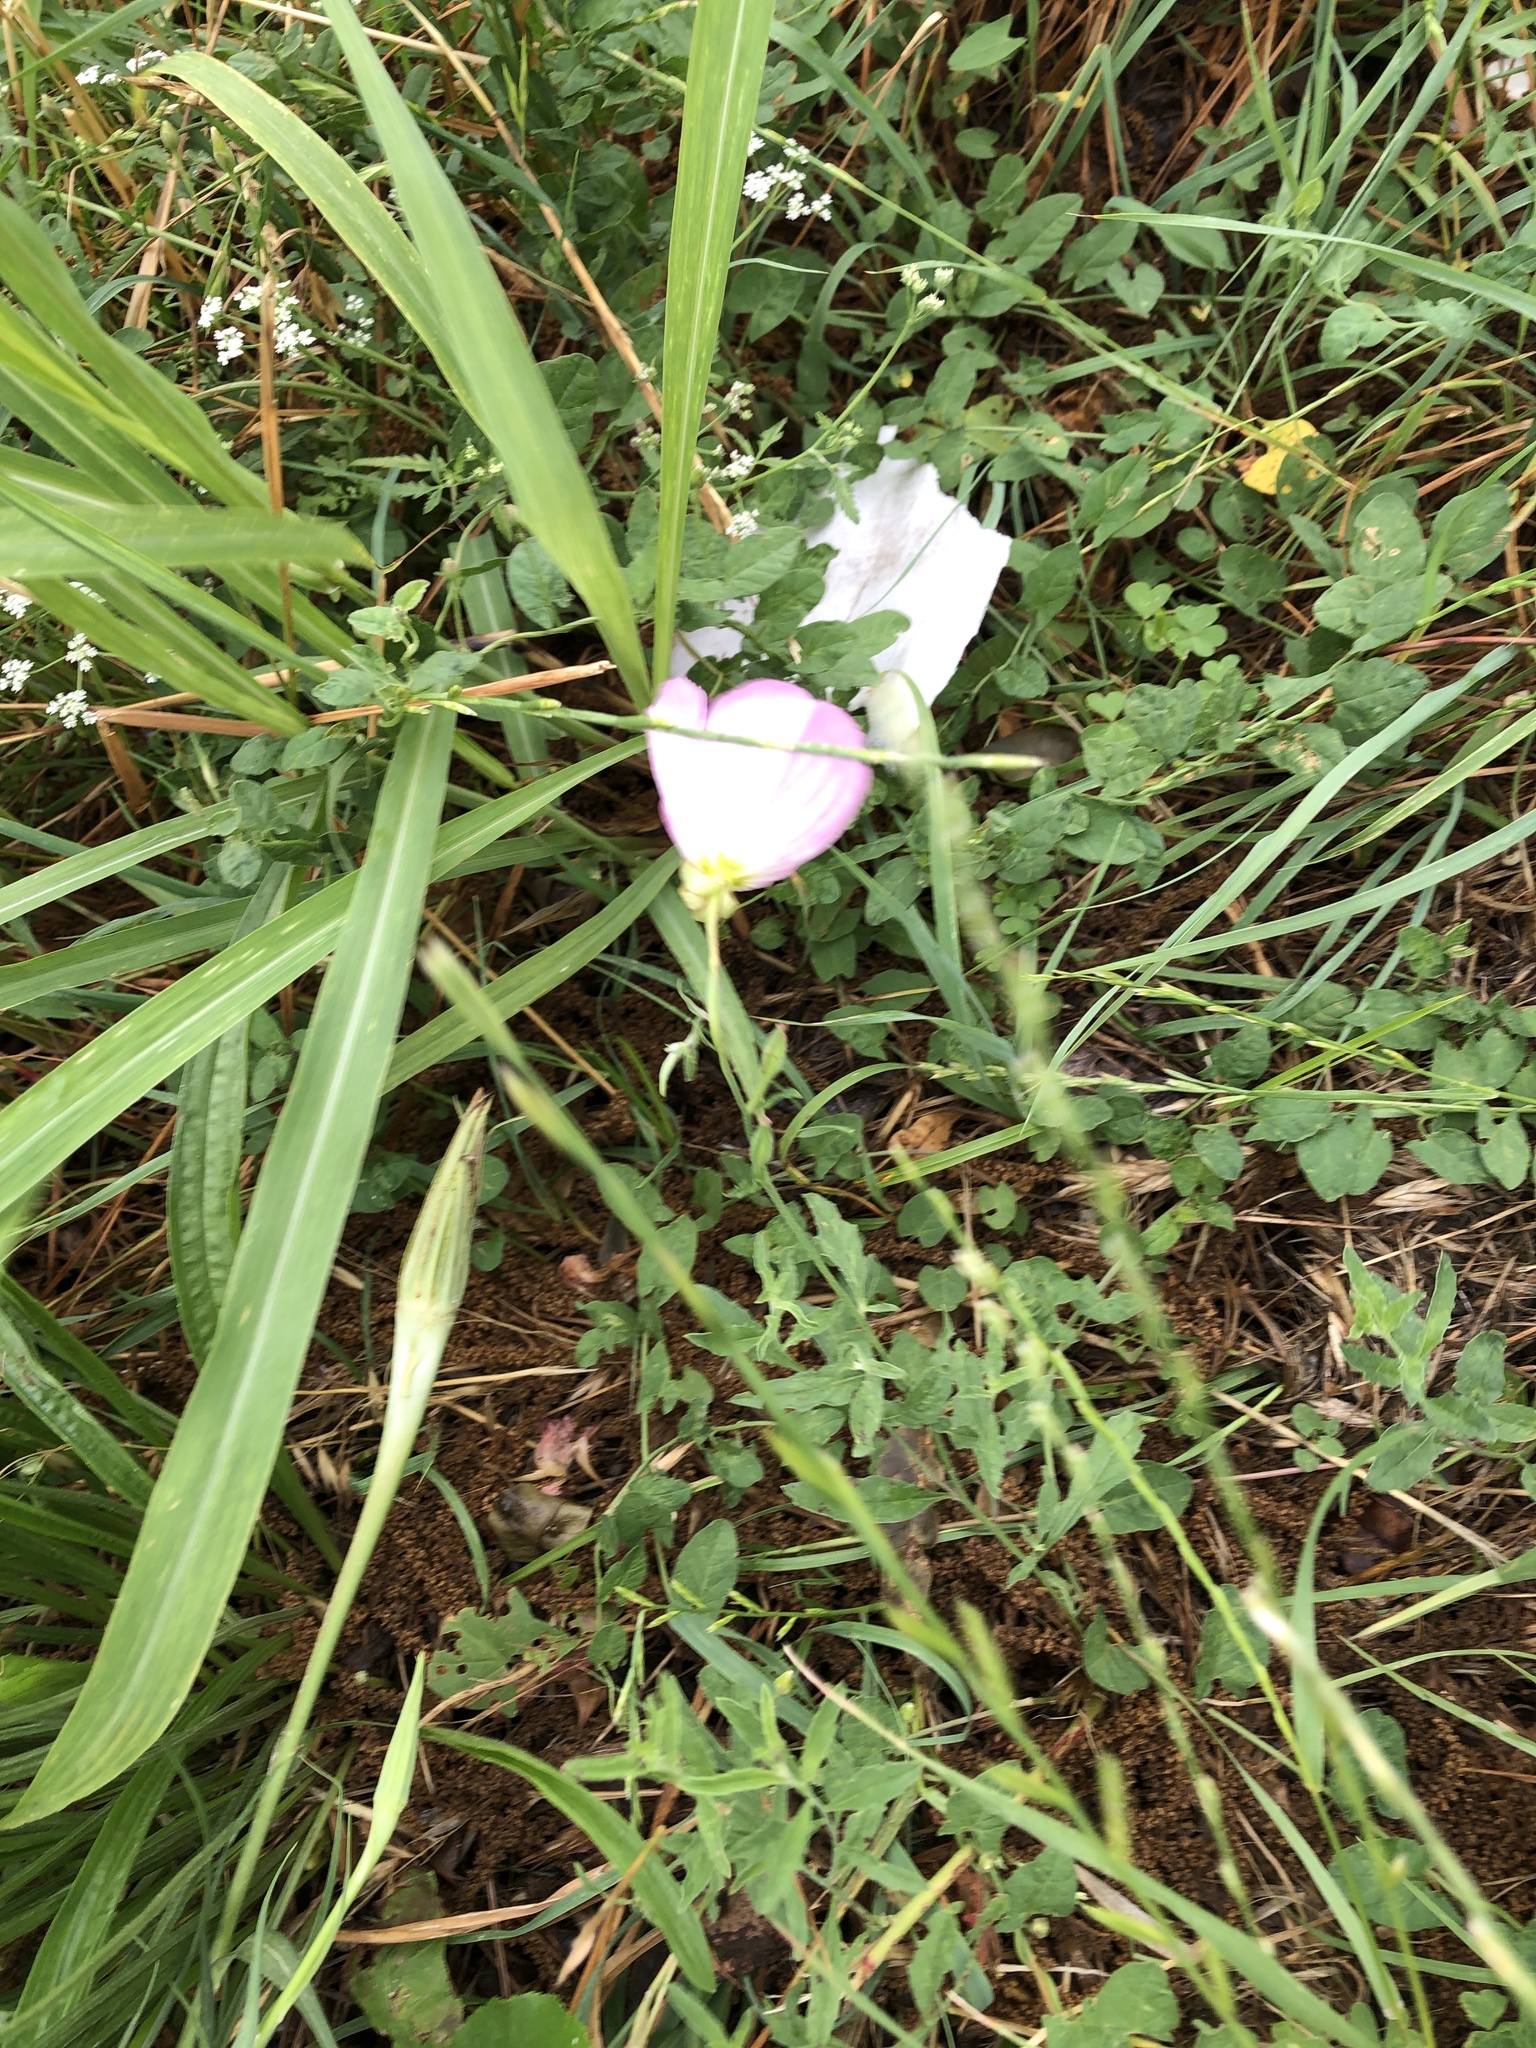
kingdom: Plantae
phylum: Tracheophyta
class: Magnoliopsida
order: Myrtales
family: Onagraceae
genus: Oenothera
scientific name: Oenothera speciosa
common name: White evening-primrose
